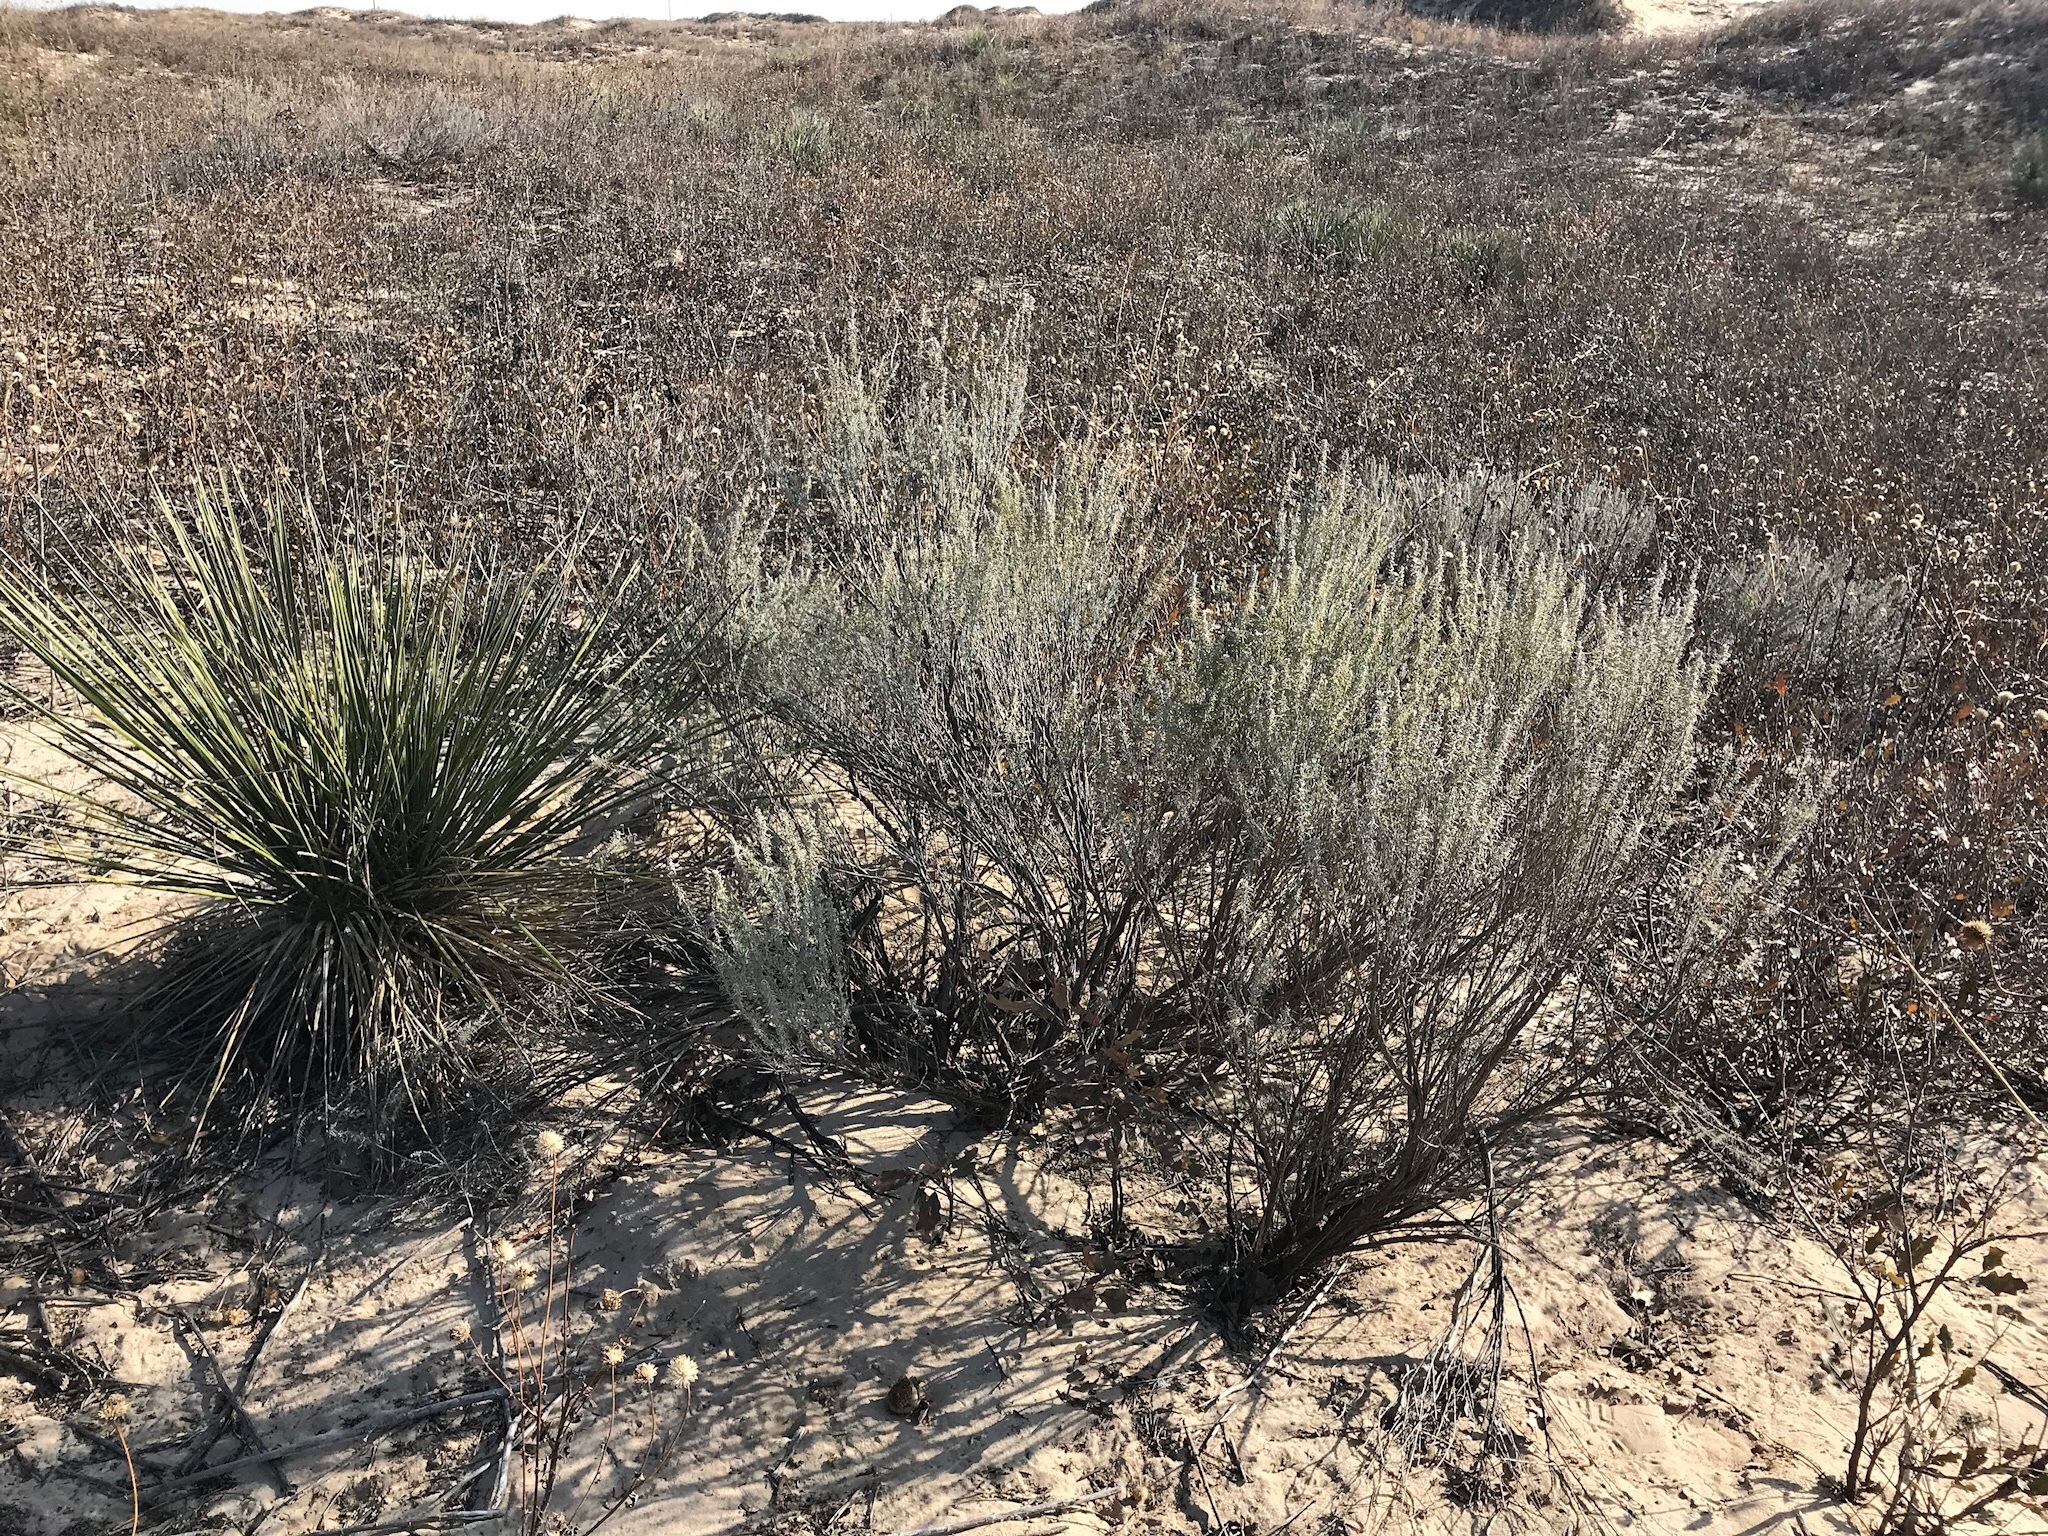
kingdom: Plantae
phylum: Tracheophyta
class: Magnoliopsida
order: Asterales
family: Asteraceae
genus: Artemisia
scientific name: Artemisia filifolia
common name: Sand-sage
